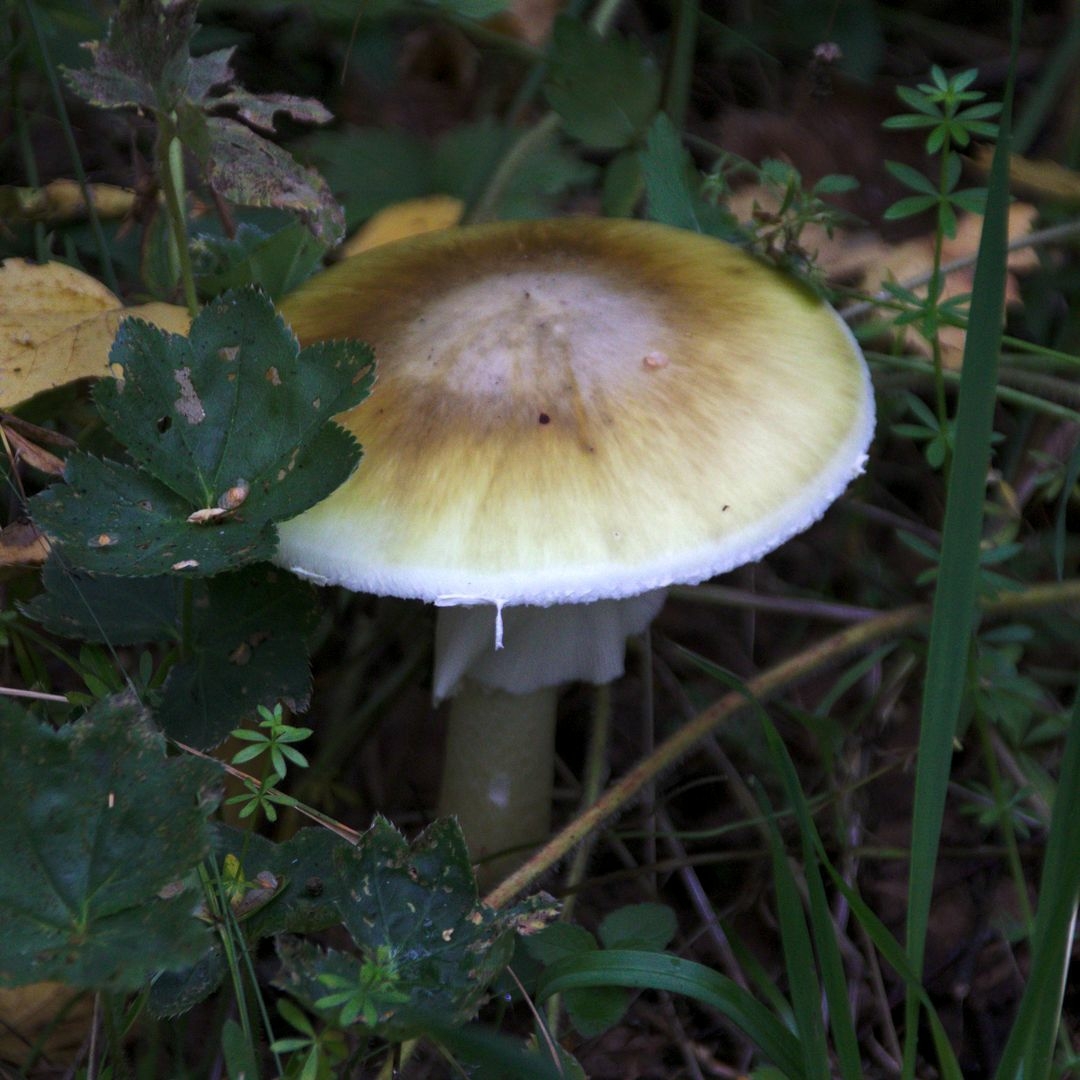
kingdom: Fungi
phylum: Basidiomycota
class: Agaricomycetes
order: Agaricales
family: Amanitaceae
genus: Amanita
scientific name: Amanita phalloides
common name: Death cap
